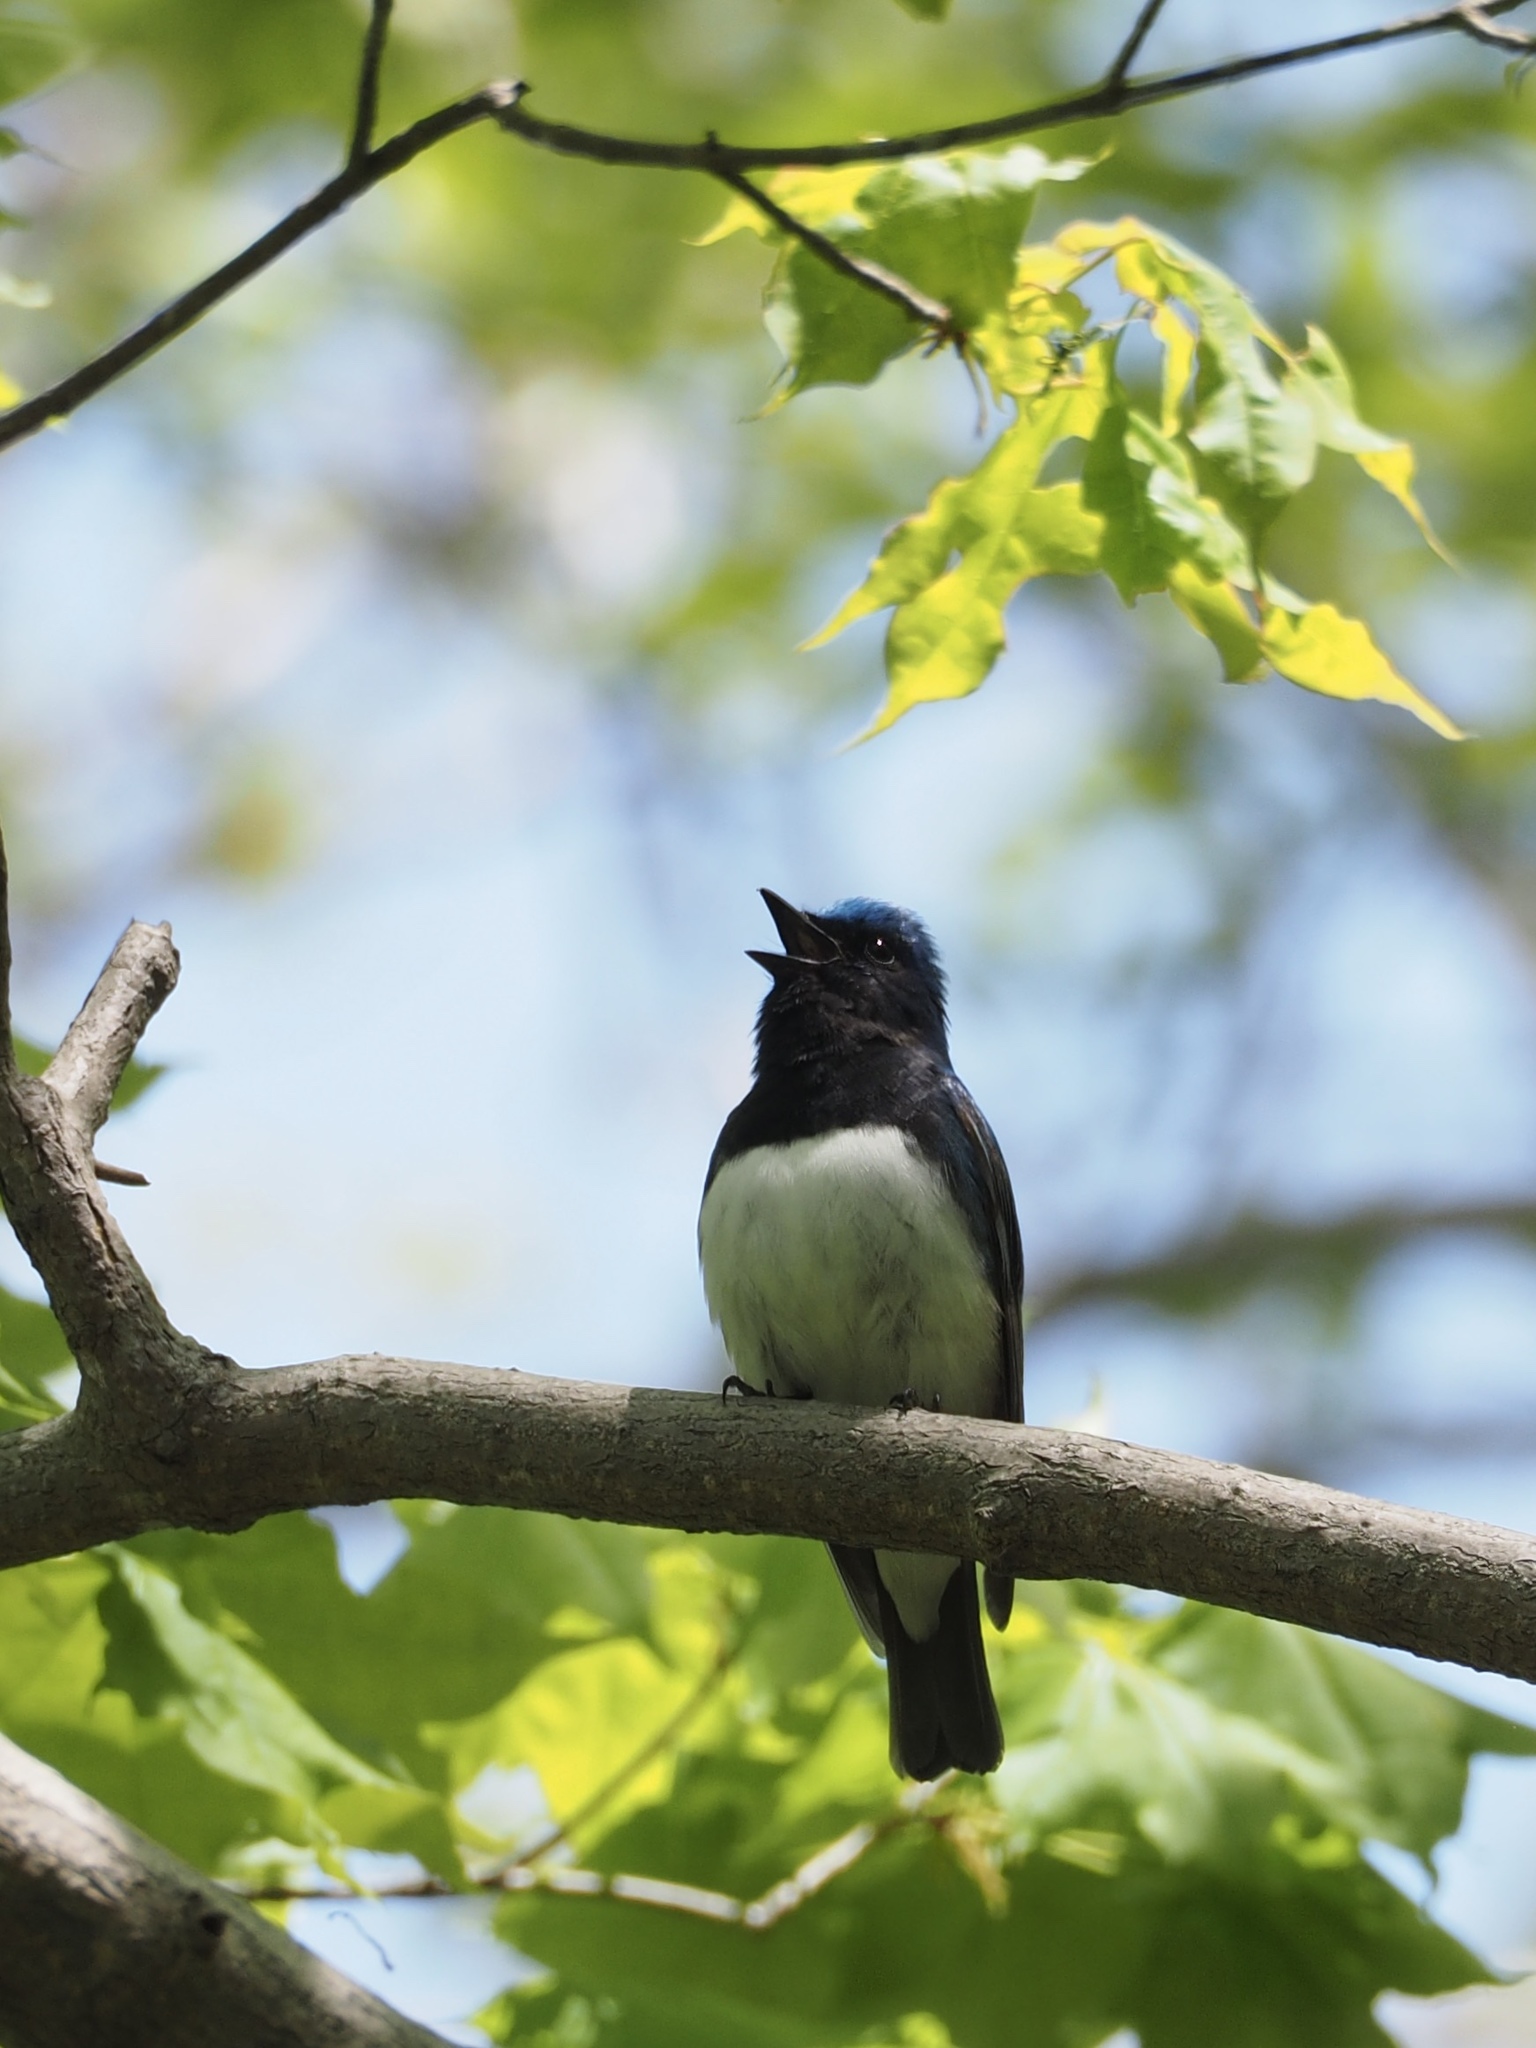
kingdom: Animalia
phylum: Chordata
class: Aves
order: Passeriformes
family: Muscicapidae
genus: Cyanoptila
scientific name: Cyanoptila cyanomelana
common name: Blue-and-white flycatcher
